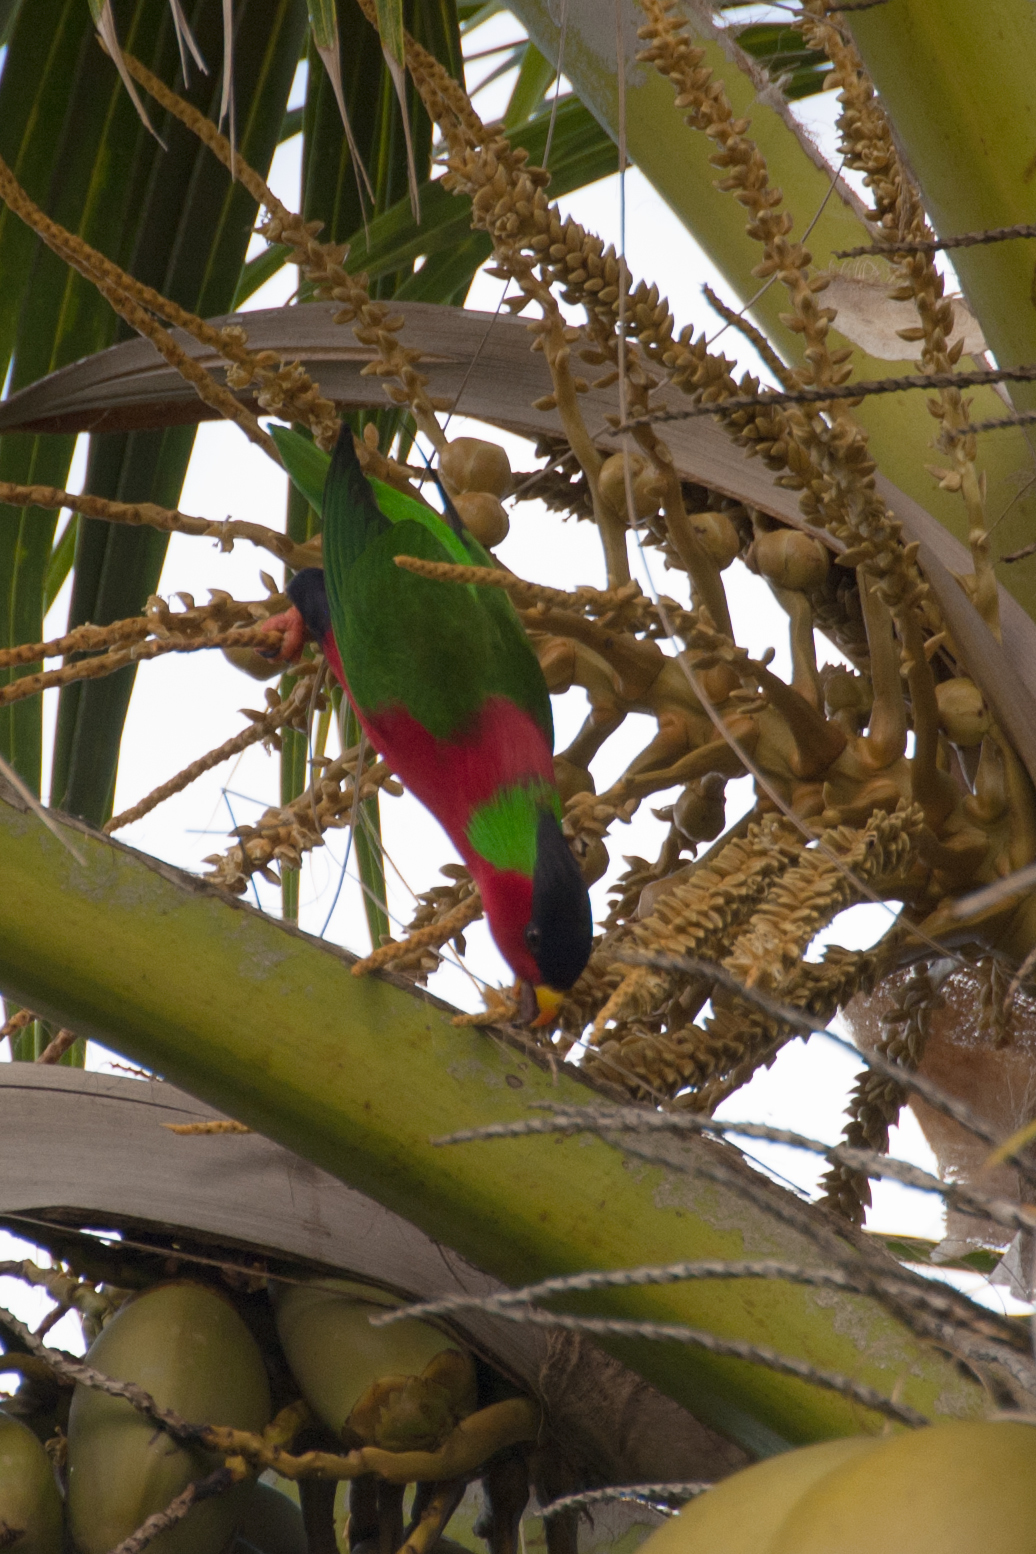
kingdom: Animalia
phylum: Chordata
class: Aves
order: Psittaciformes
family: Psittacidae
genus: Phigys
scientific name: Phigys solitarius
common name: Collared lory
